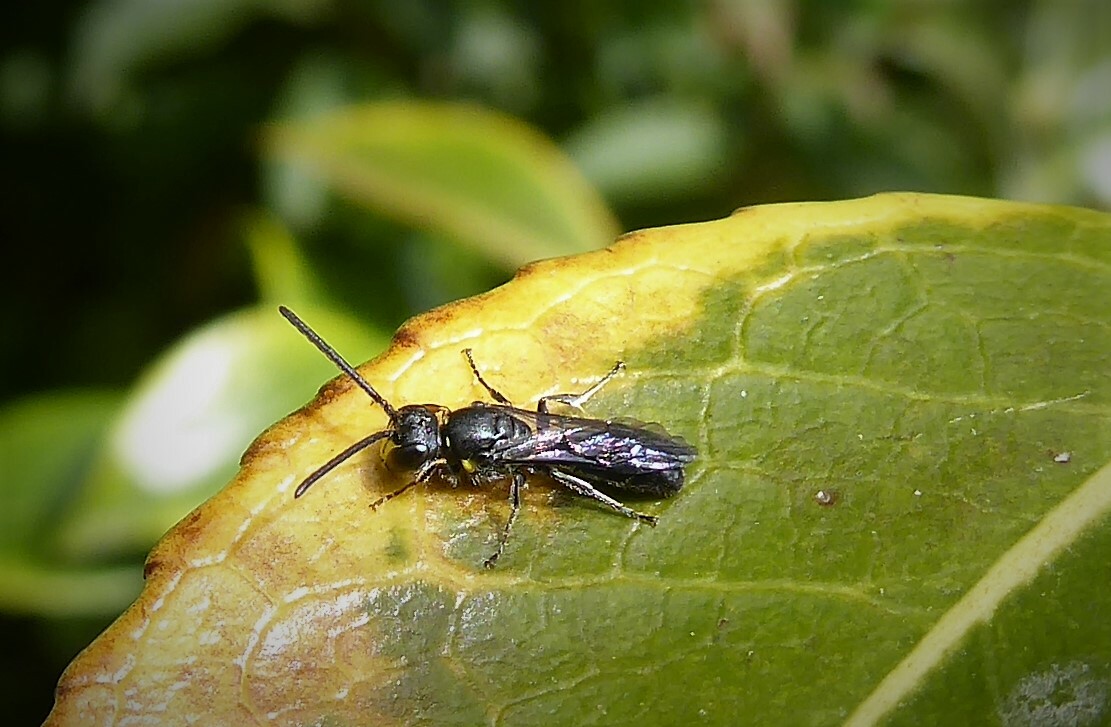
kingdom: Animalia
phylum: Arthropoda
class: Insecta
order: Hymenoptera
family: Colletidae
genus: Hylaeus
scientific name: Hylaeus relegatus
